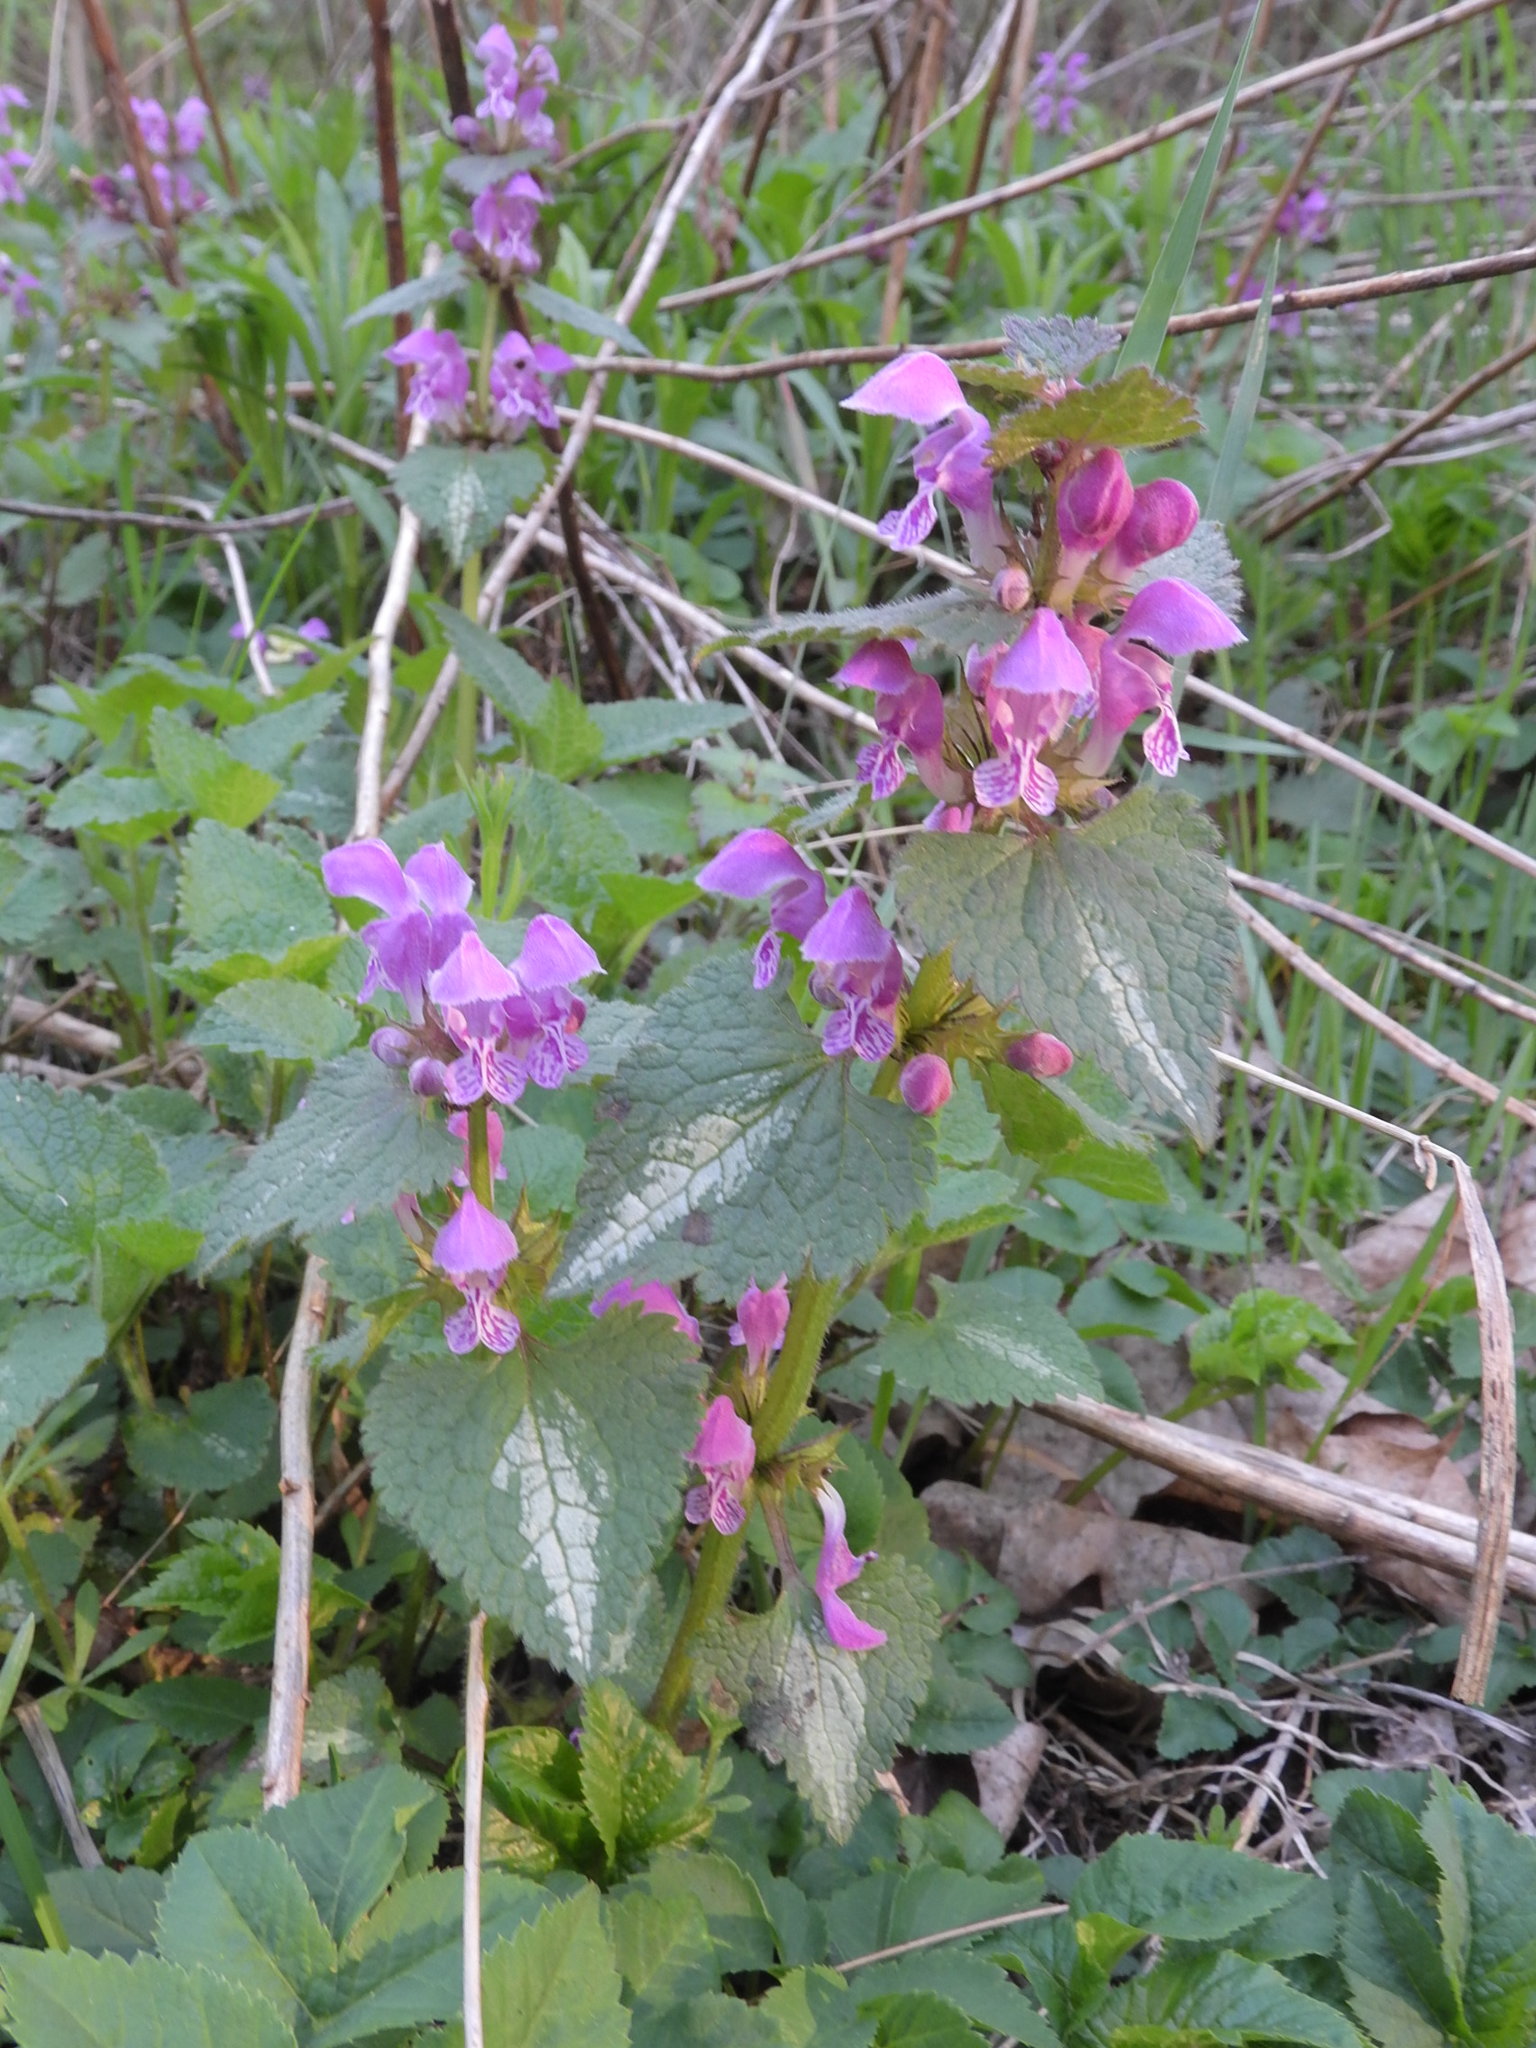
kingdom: Plantae
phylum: Tracheophyta
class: Magnoliopsida
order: Lamiales
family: Lamiaceae
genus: Lamium
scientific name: Lamium maculatum
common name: Spotted dead-nettle
